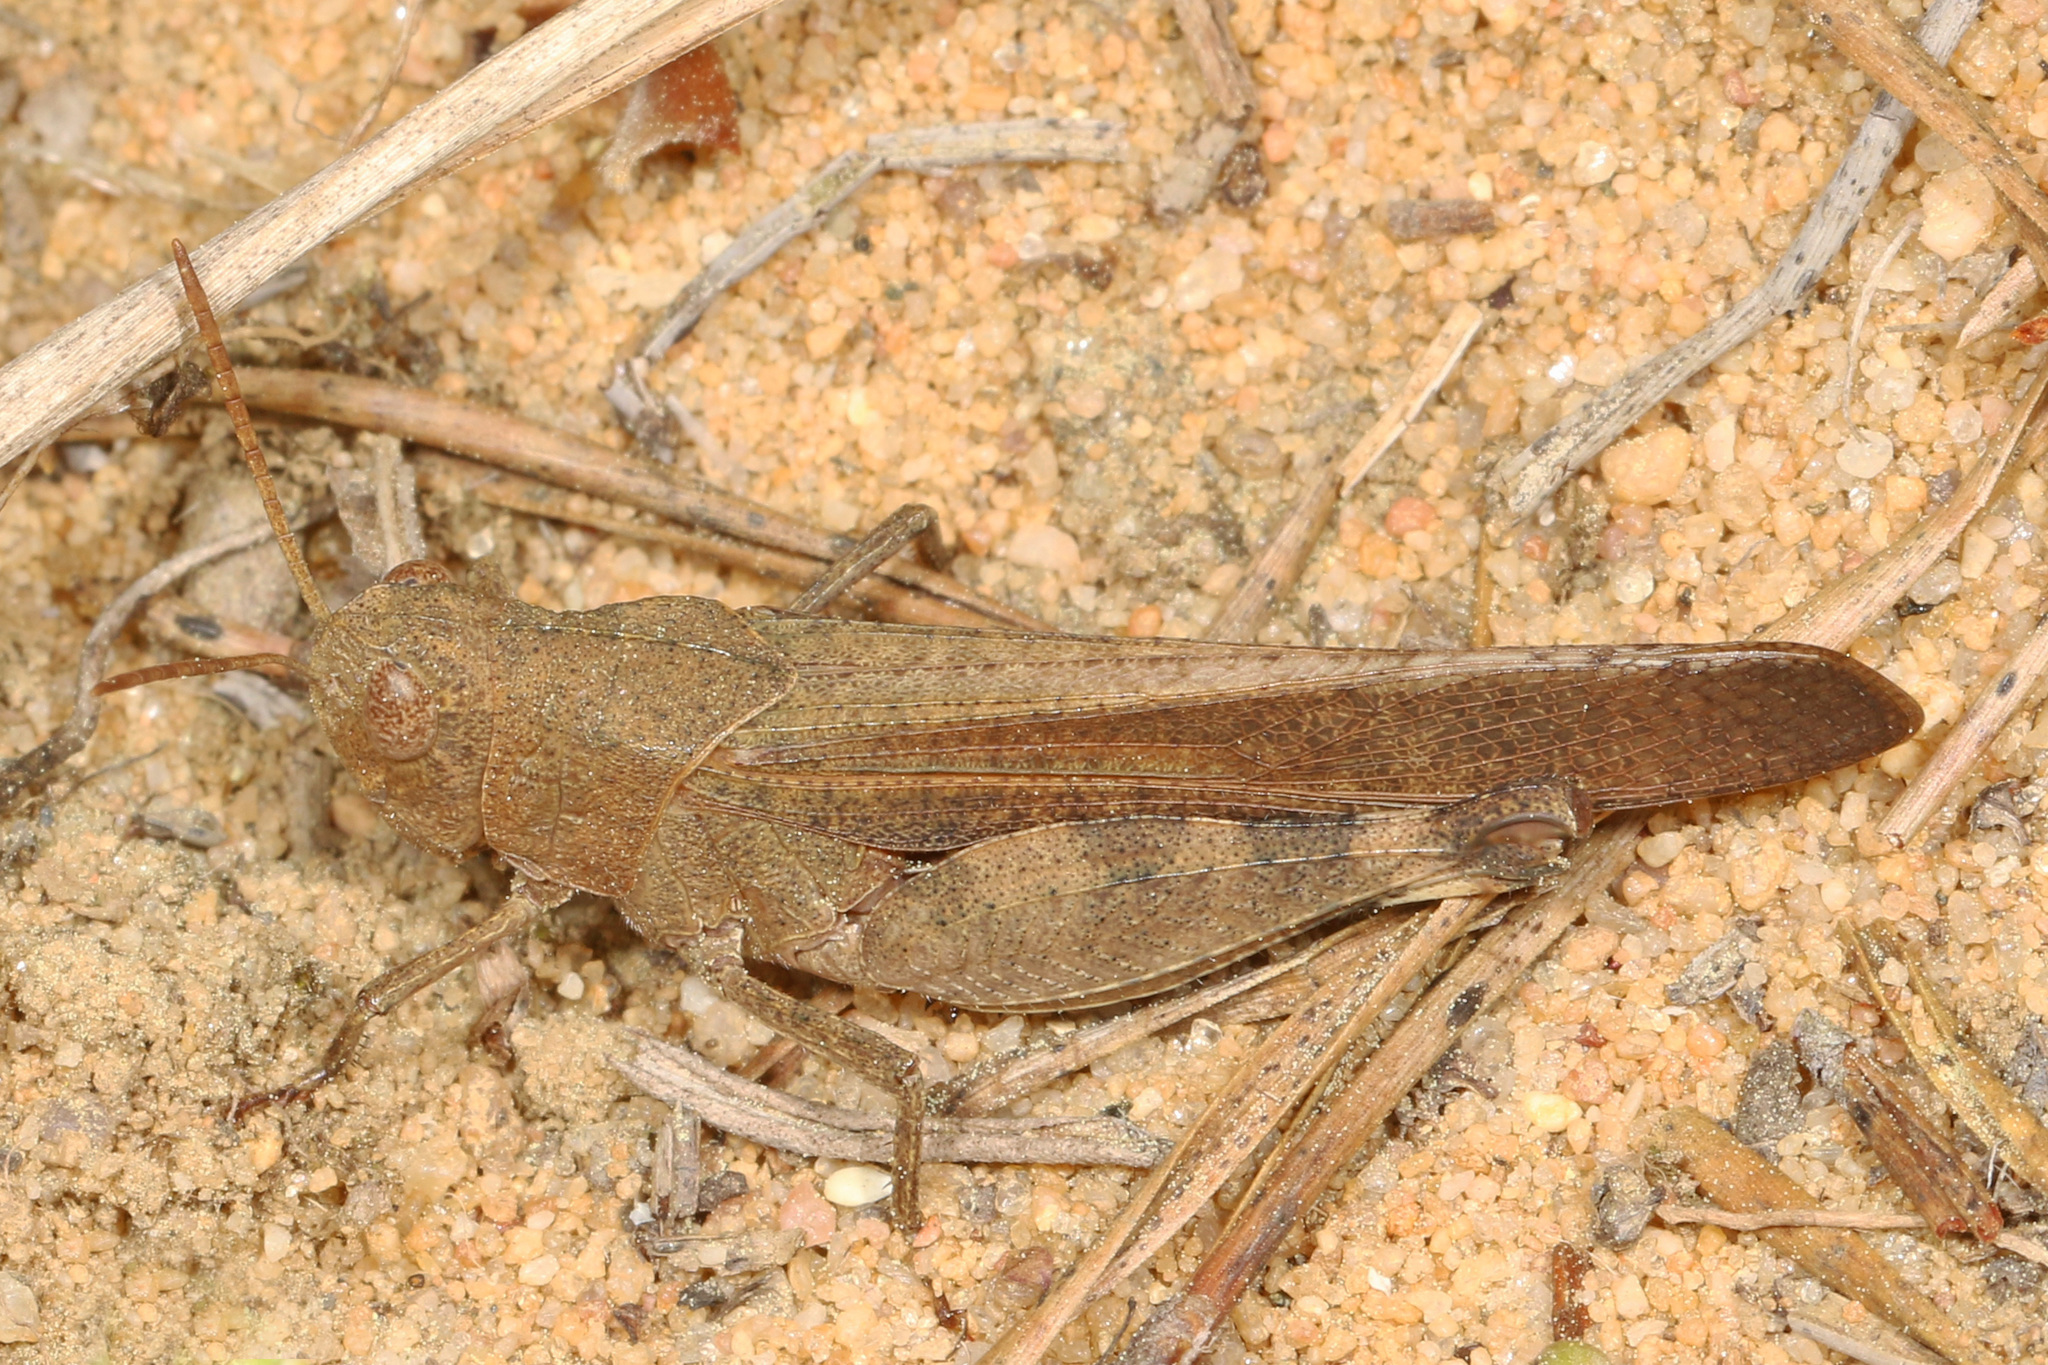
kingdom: Animalia
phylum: Arthropoda
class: Insecta
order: Orthoptera
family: Acrididae
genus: Arphia
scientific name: Arphia sulphurea
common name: Spring yellow-winged locust
